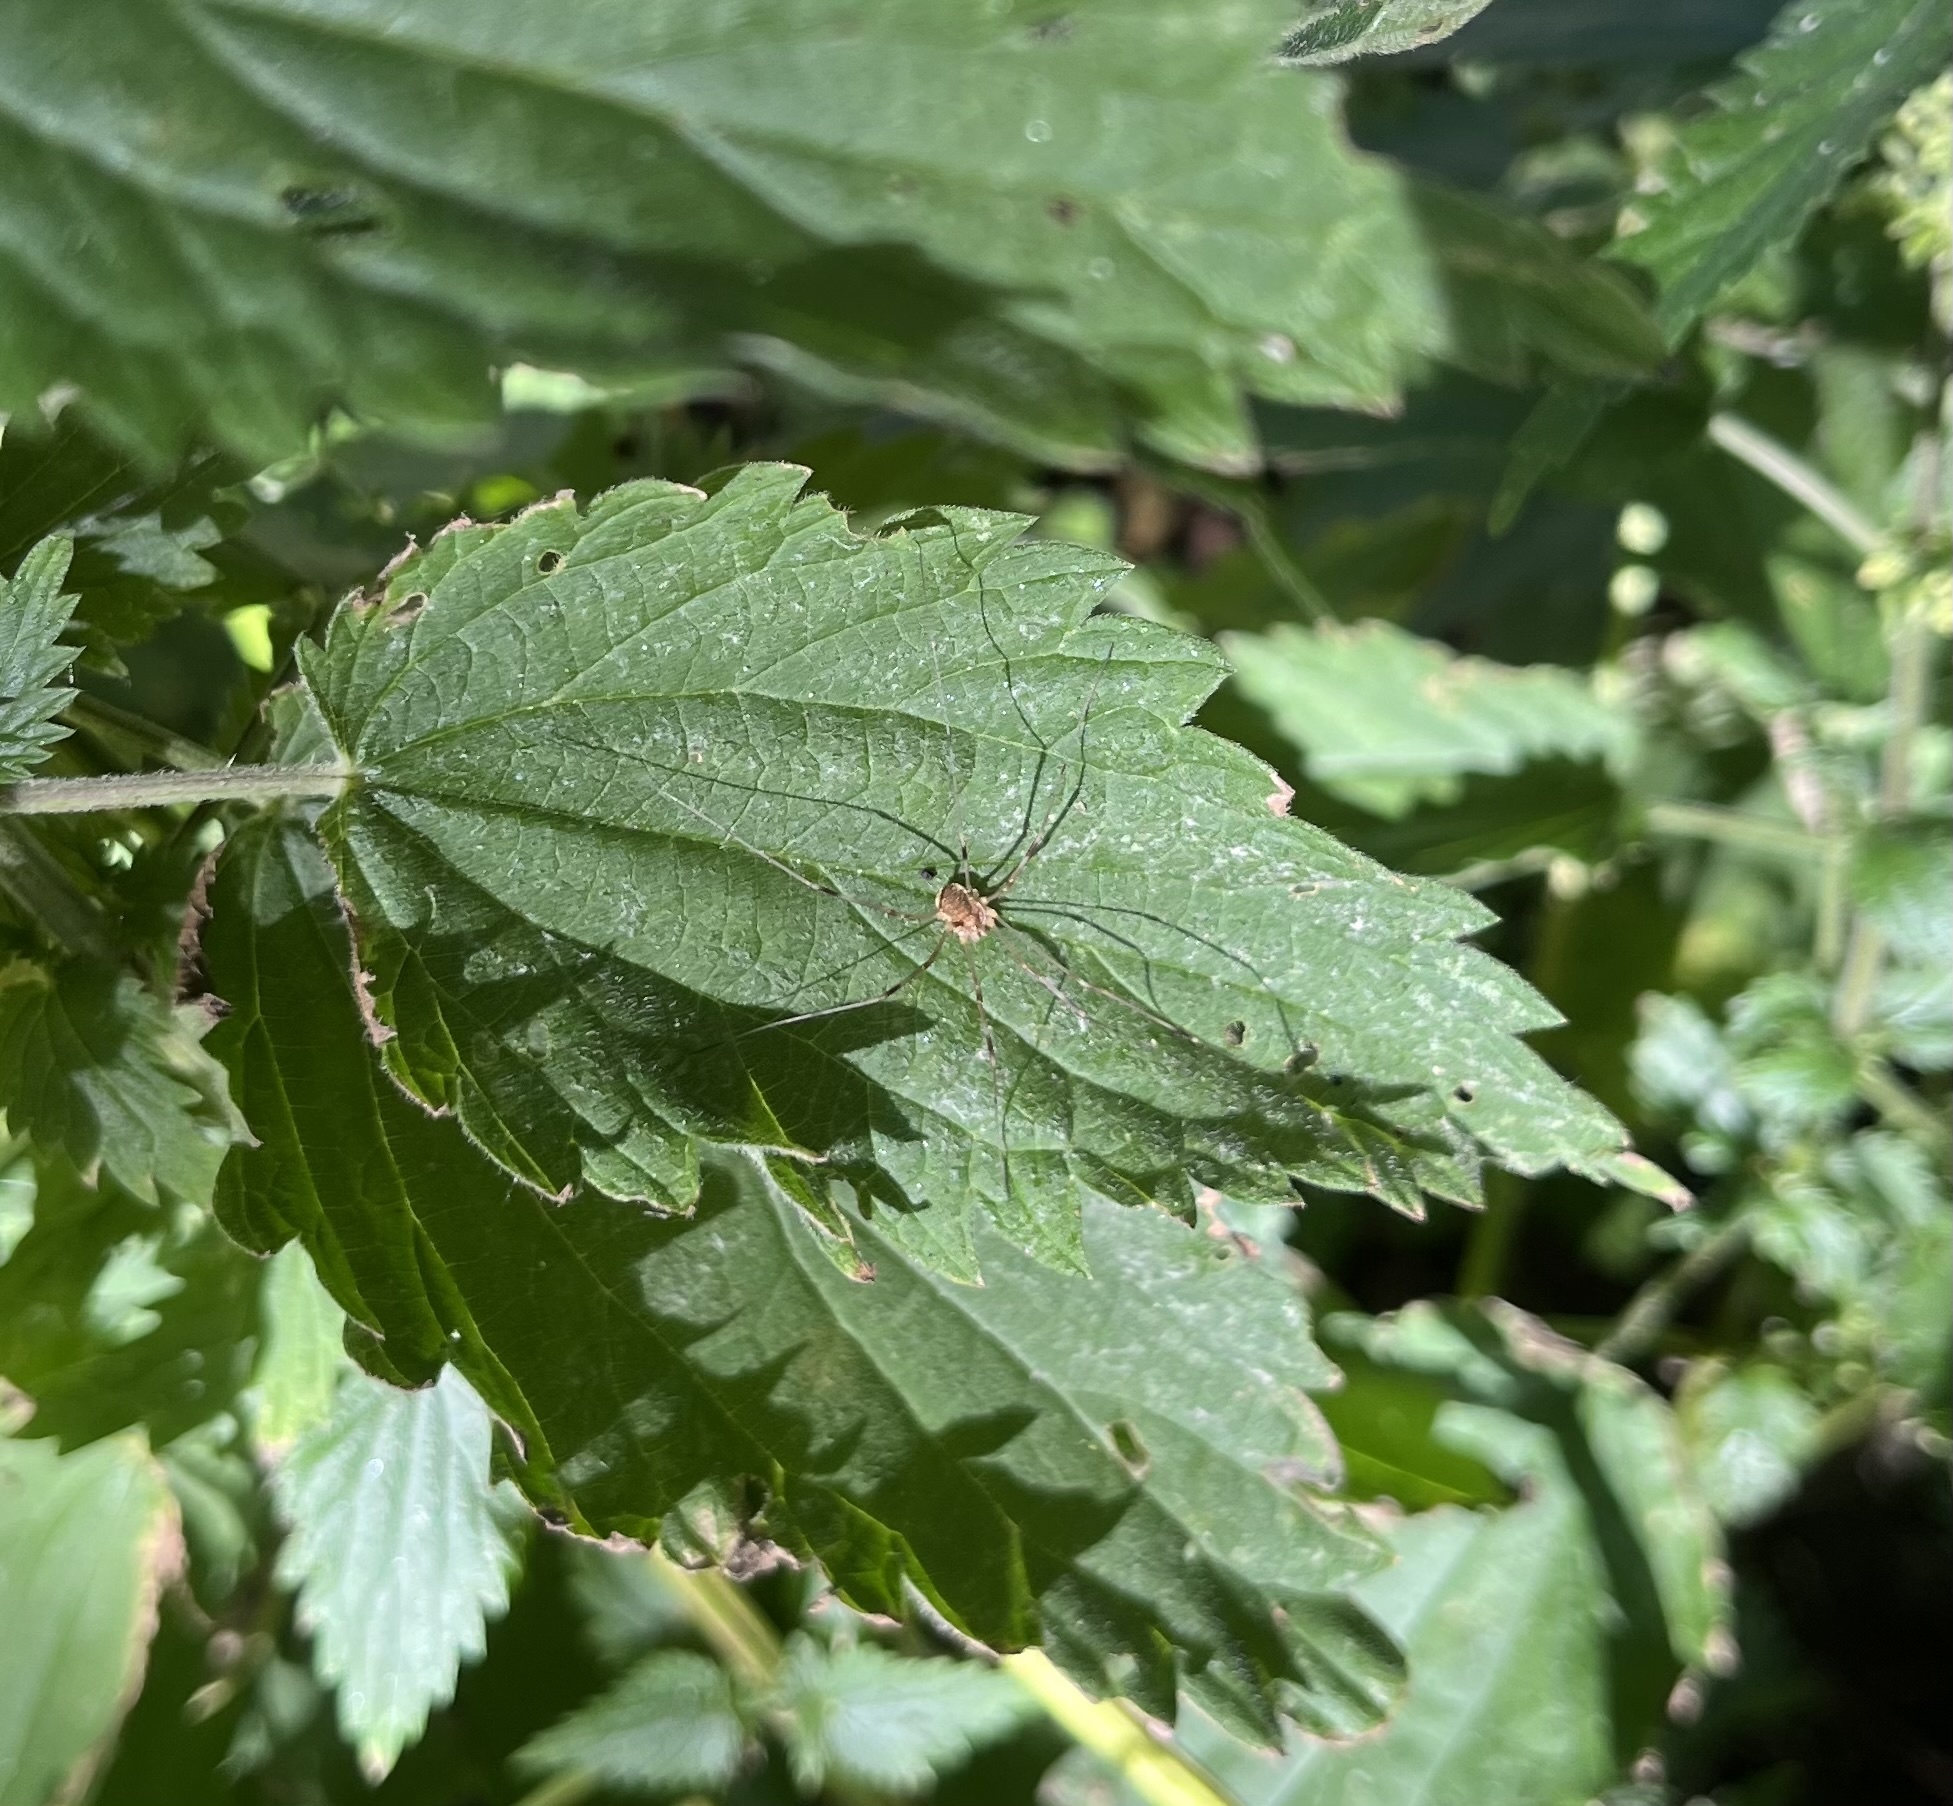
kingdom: Animalia
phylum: Arthropoda
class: Arachnida
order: Opiliones
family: Phalangiidae
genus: Opilio
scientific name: Opilio canestrinii
